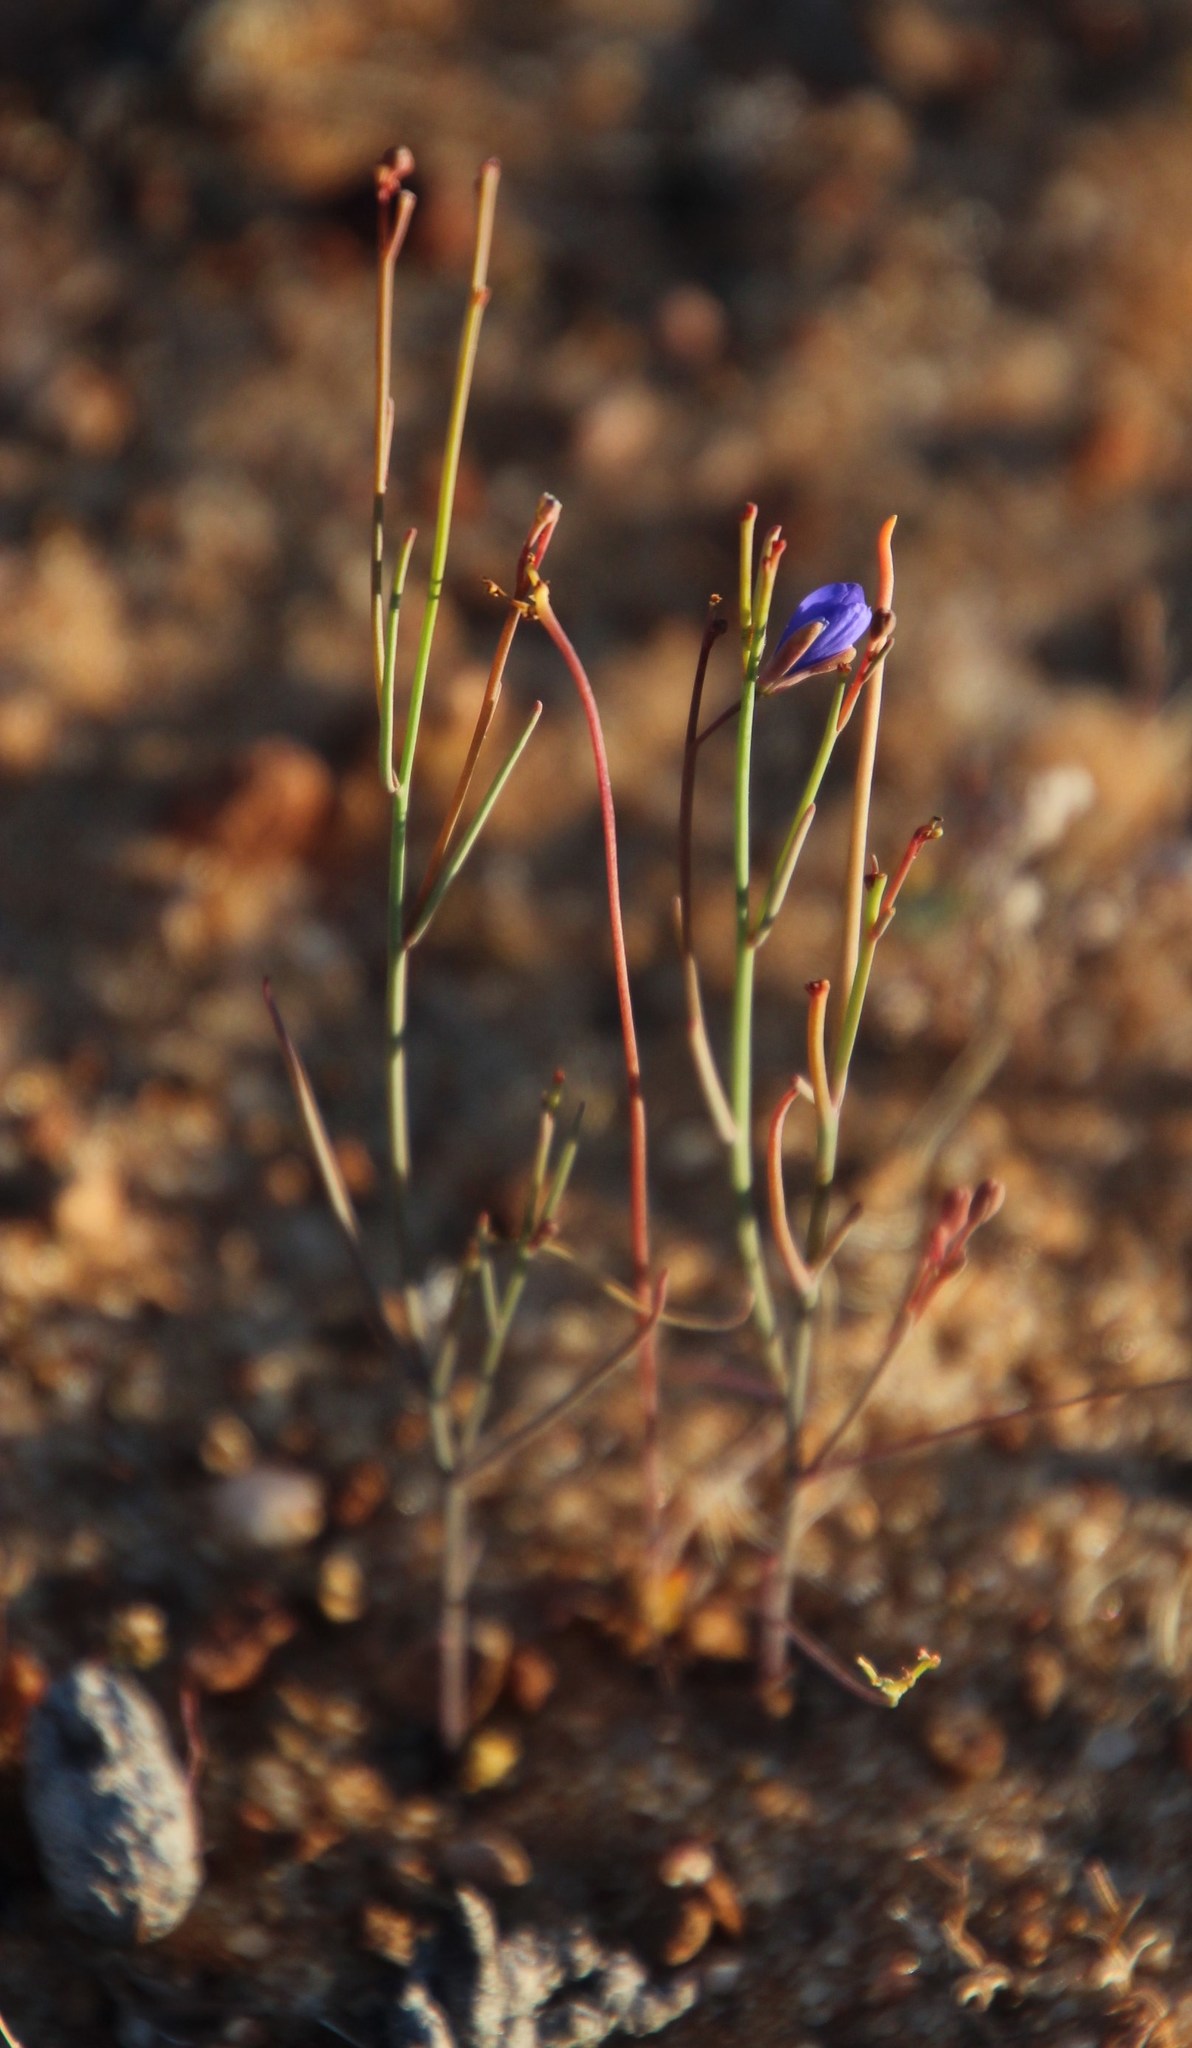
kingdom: Plantae
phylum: Tracheophyta
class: Magnoliopsida
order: Brassicales
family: Brassicaceae
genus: Heliophila
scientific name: Heliophila decurva
